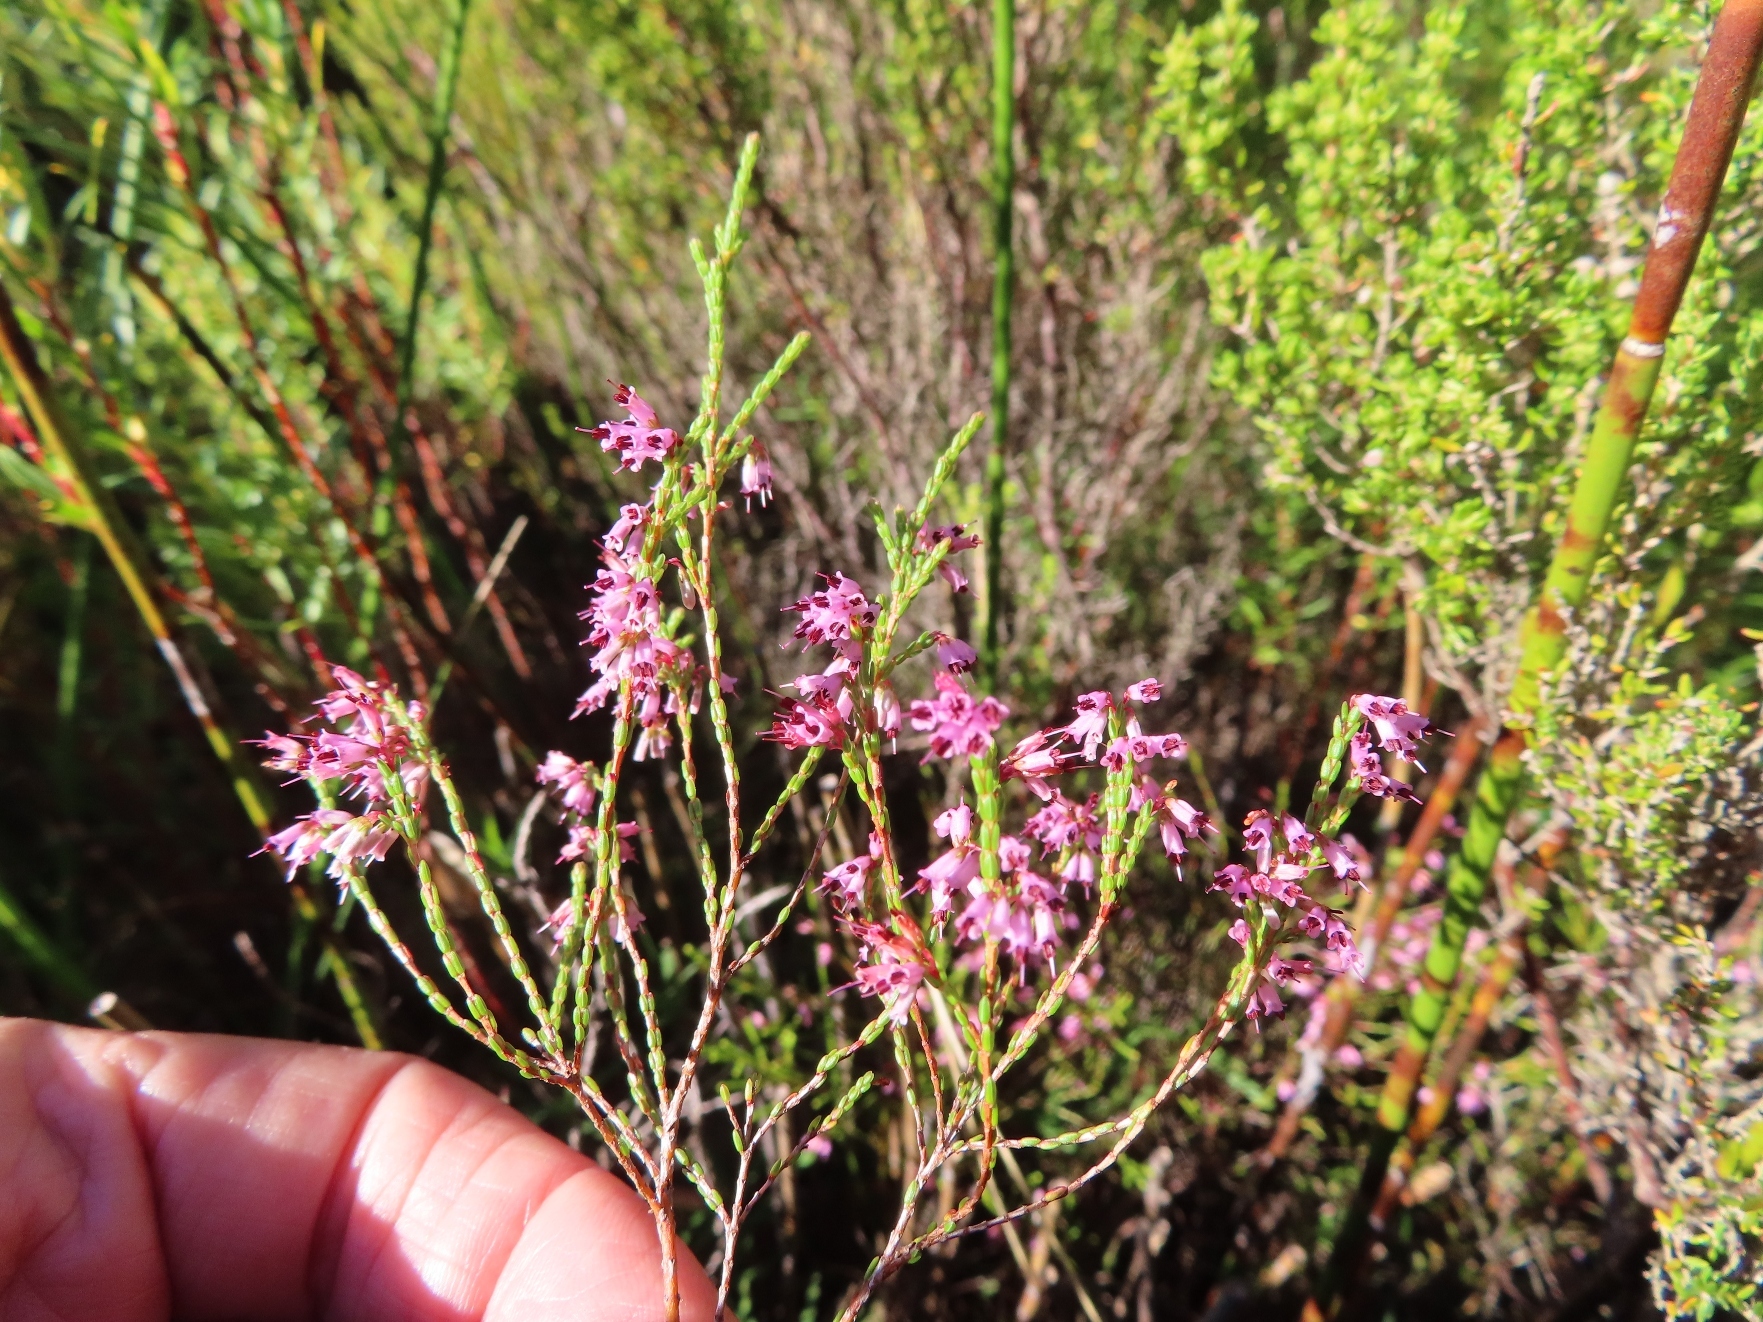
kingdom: Plantae
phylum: Tracheophyta
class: Magnoliopsida
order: Ericales
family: Ericaceae
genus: Erica
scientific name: Erica equisetifolia
